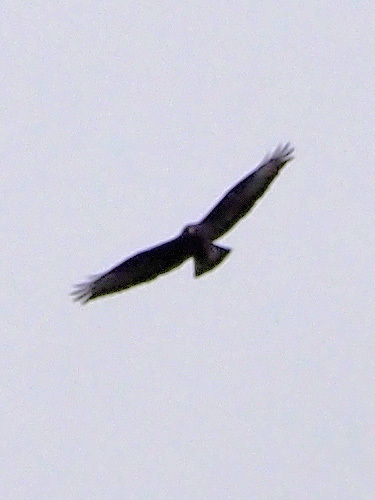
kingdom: Animalia
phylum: Chordata
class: Aves
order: Accipitriformes
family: Accipitridae
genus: Buteo
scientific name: Buteo buteo
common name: Common buzzard
